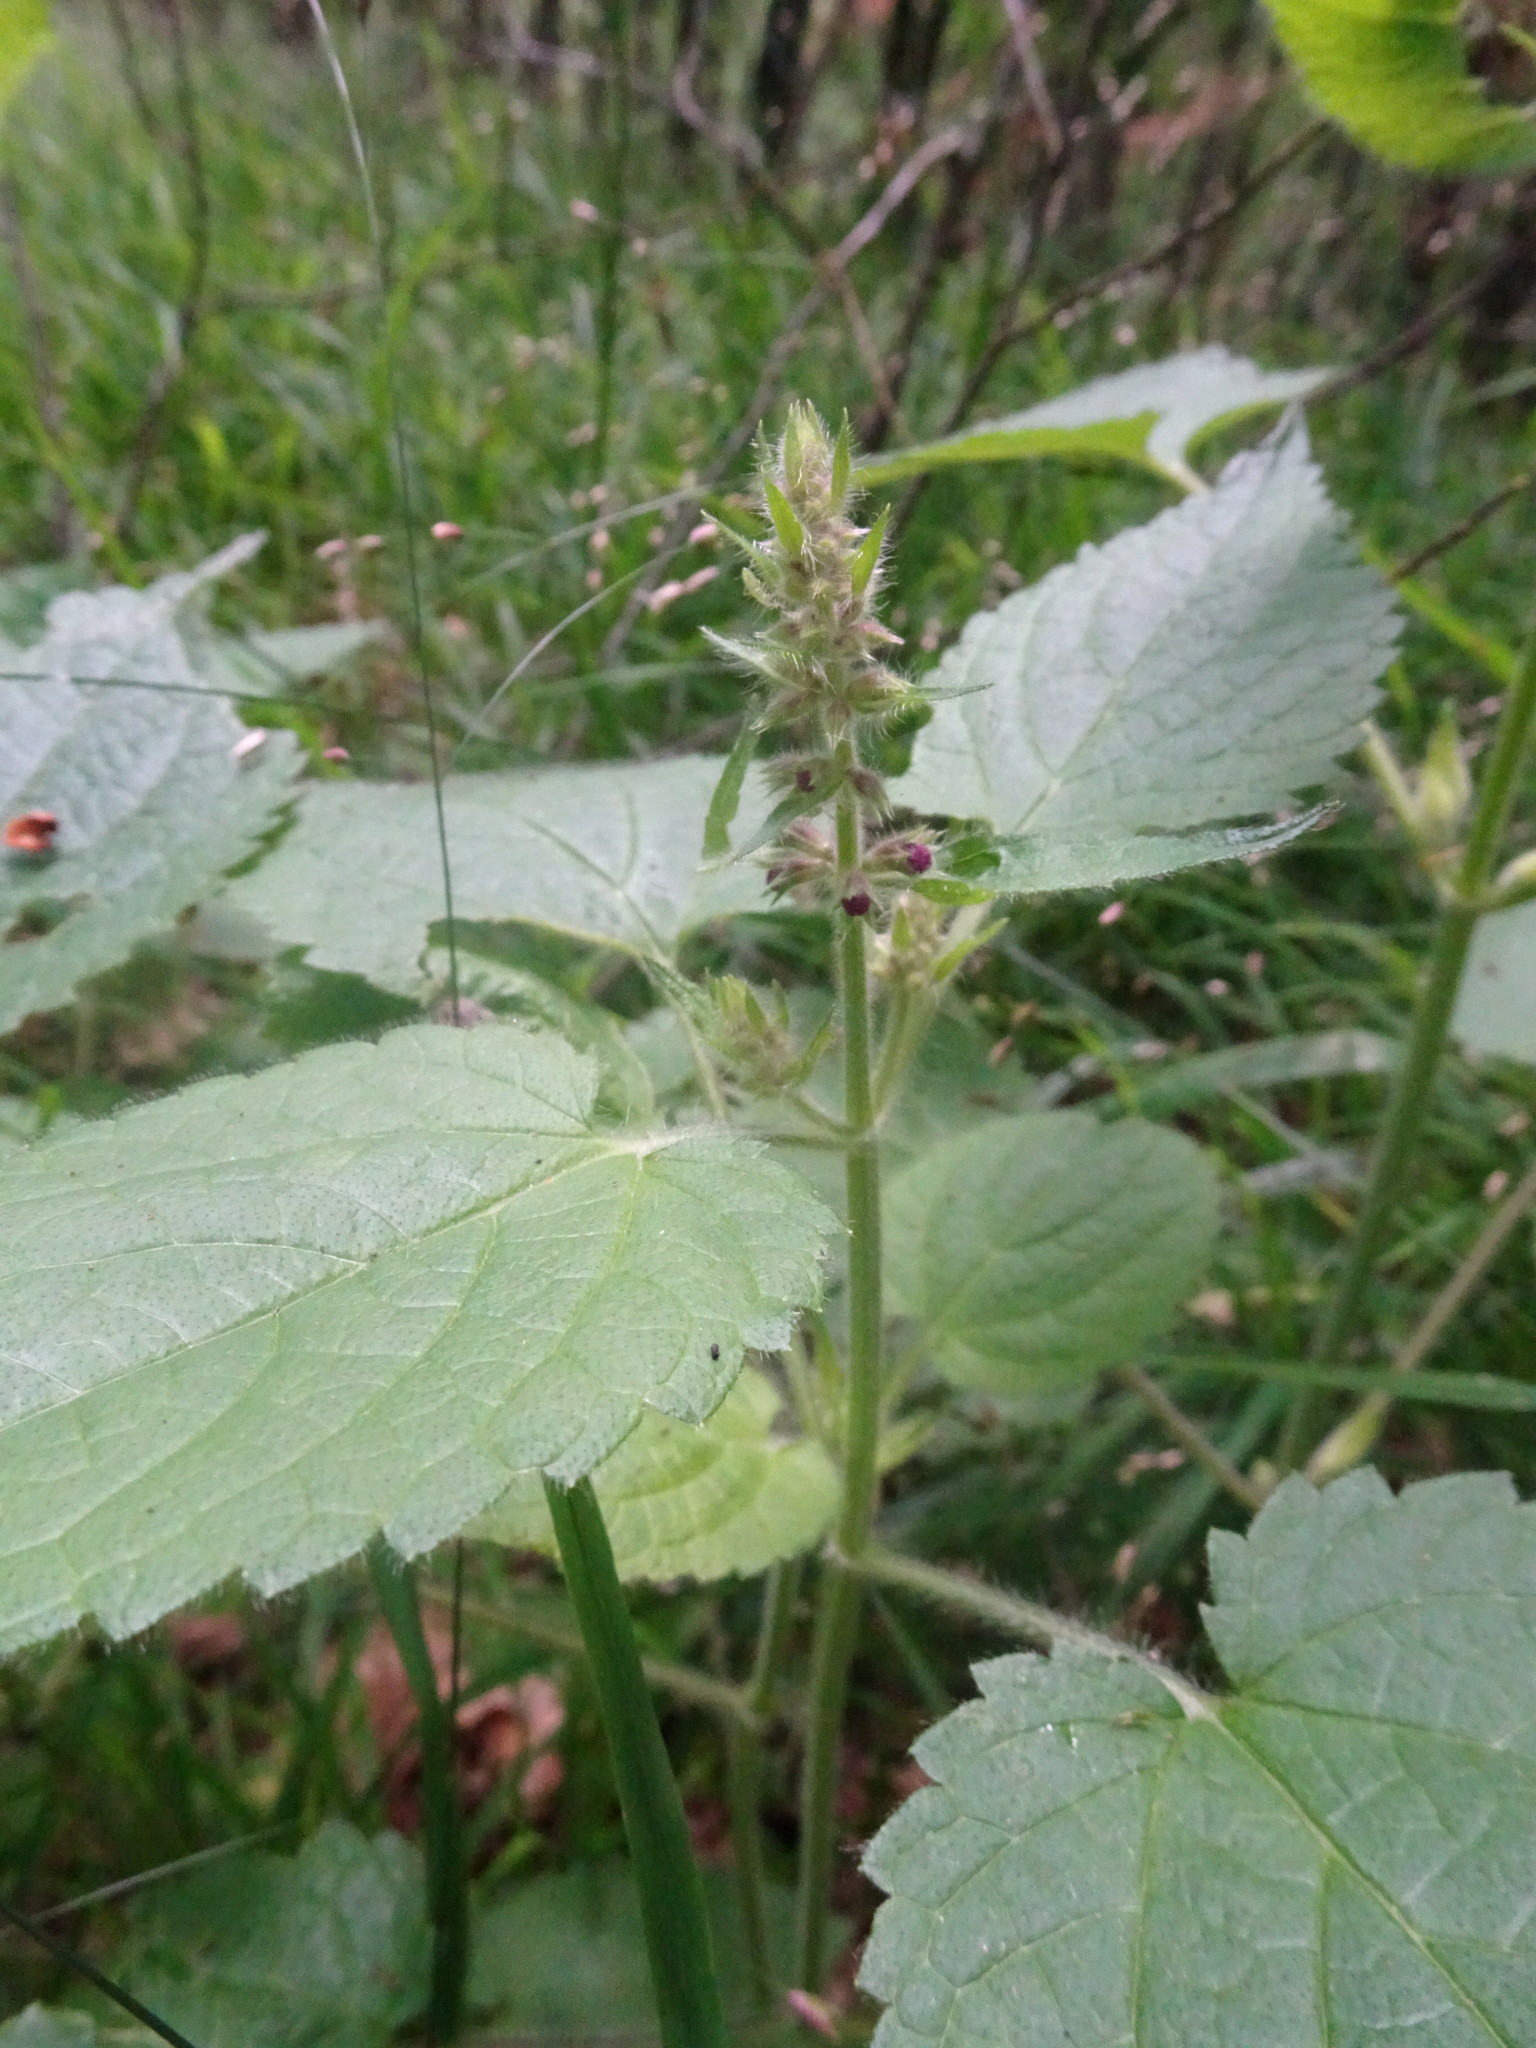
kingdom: Plantae
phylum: Tracheophyta
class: Magnoliopsida
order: Lamiales
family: Lamiaceae
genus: Stachys
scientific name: Stachys sylvatica
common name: Hedge woundwort
